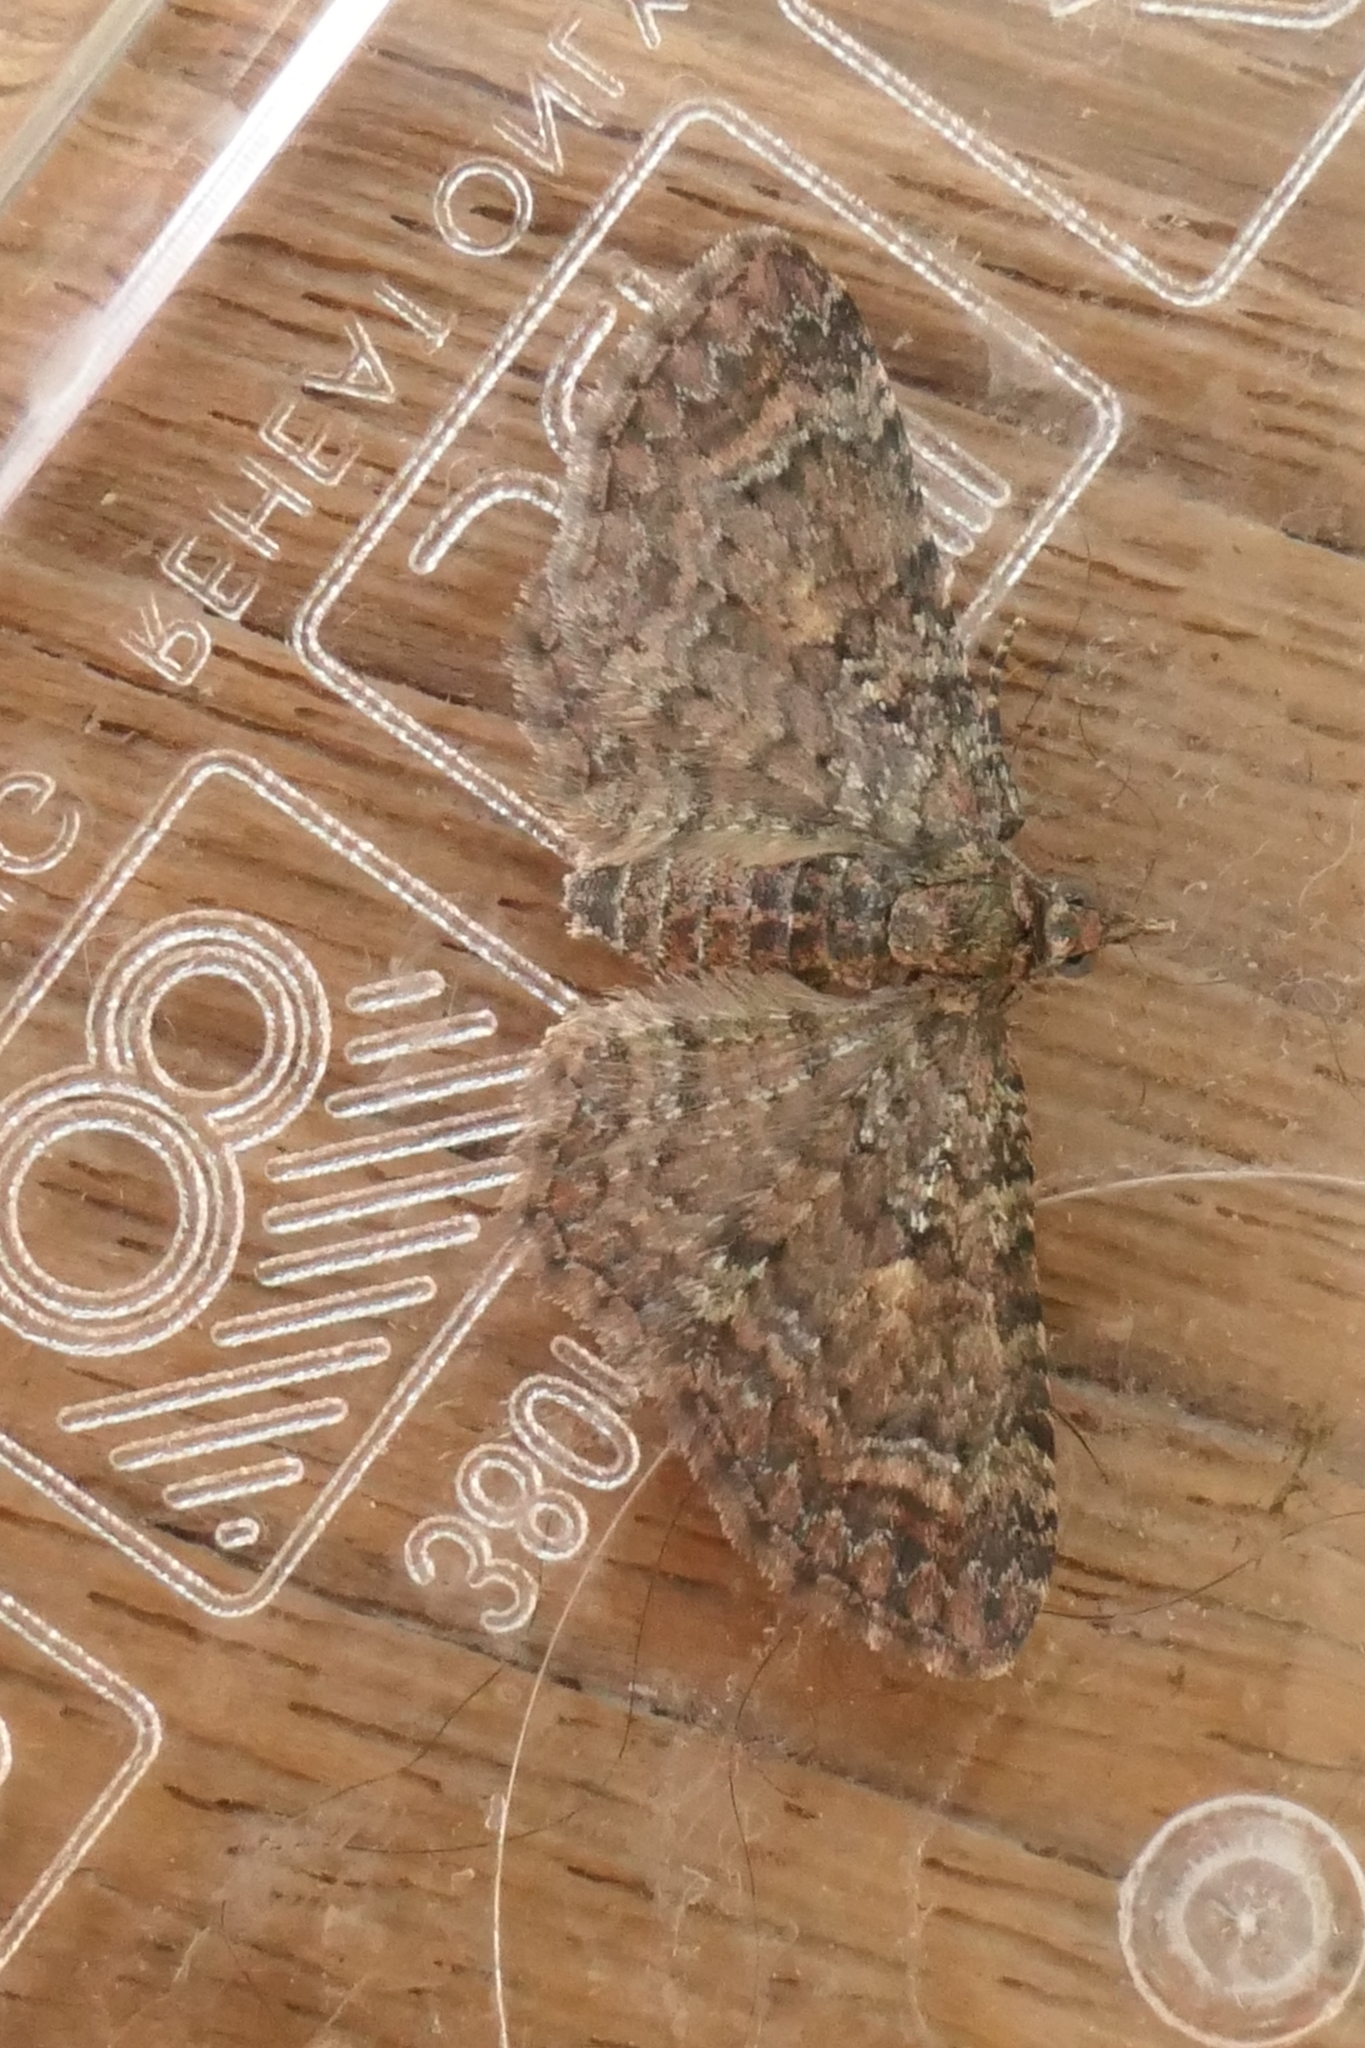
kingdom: Animalia
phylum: Arthropoda
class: Insecta
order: Lepidoptera
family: Geometridae
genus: Pasiphila
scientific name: Pasiphila lunata
